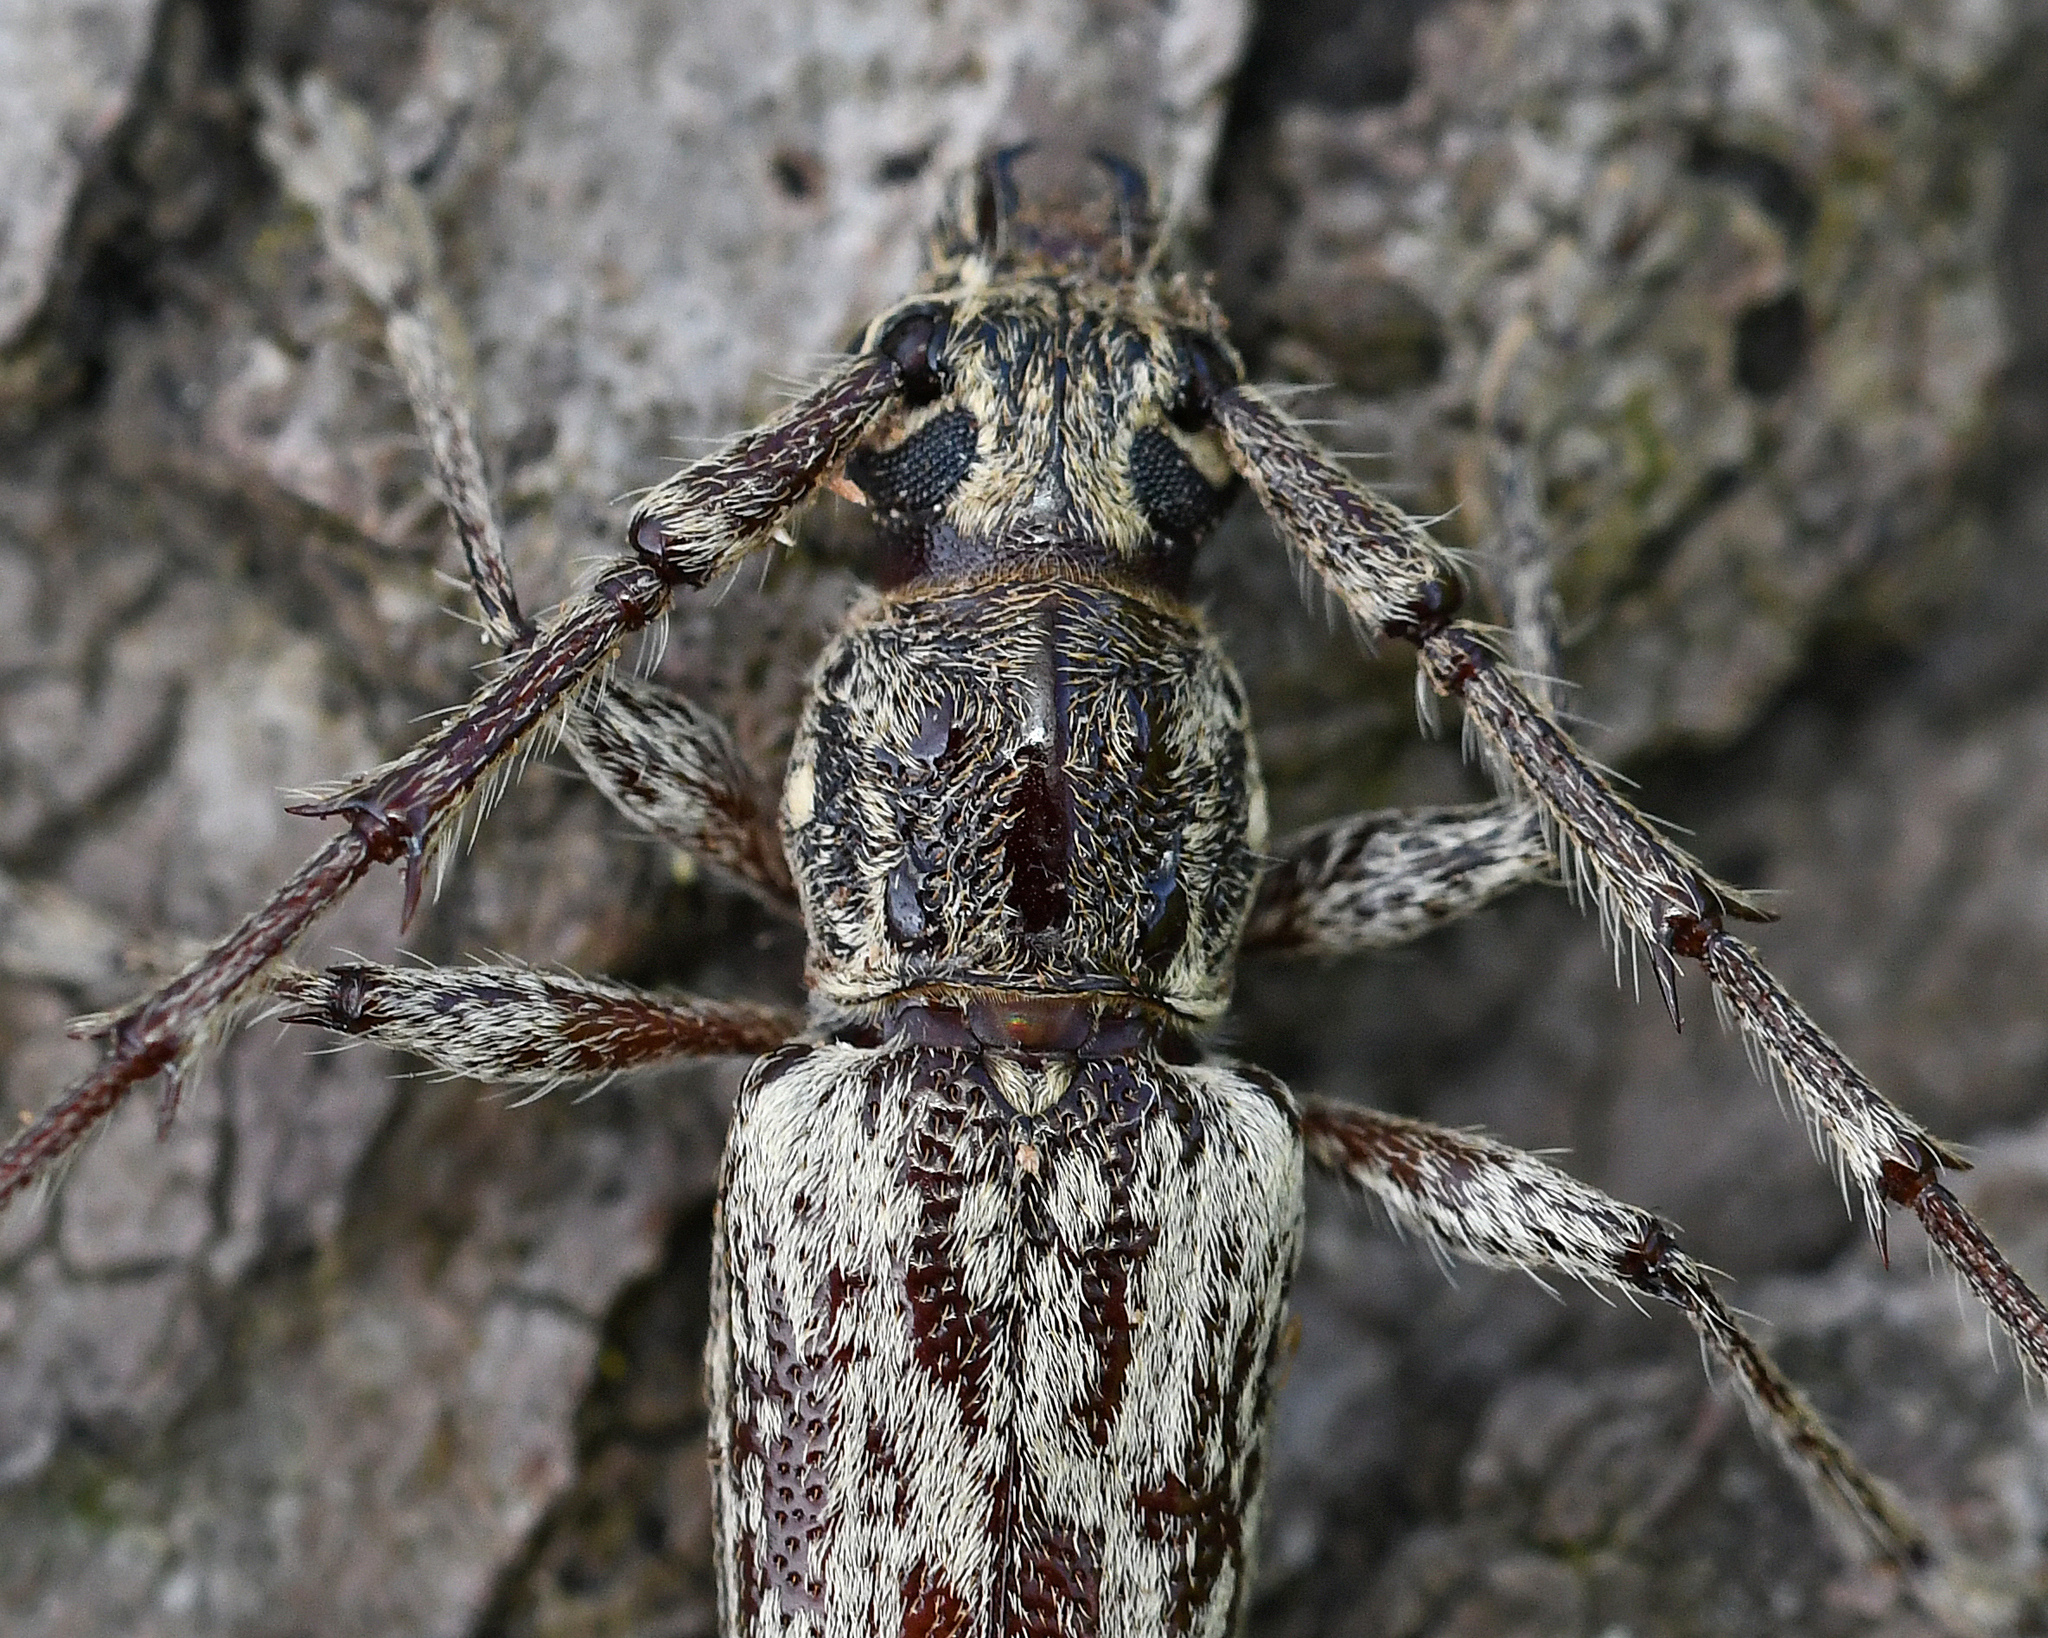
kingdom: Animalia
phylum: Arthropoda
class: Insecta
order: Coleoptera
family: Cerambycidae
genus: Elaphidion
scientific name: Elaphidion iviei
